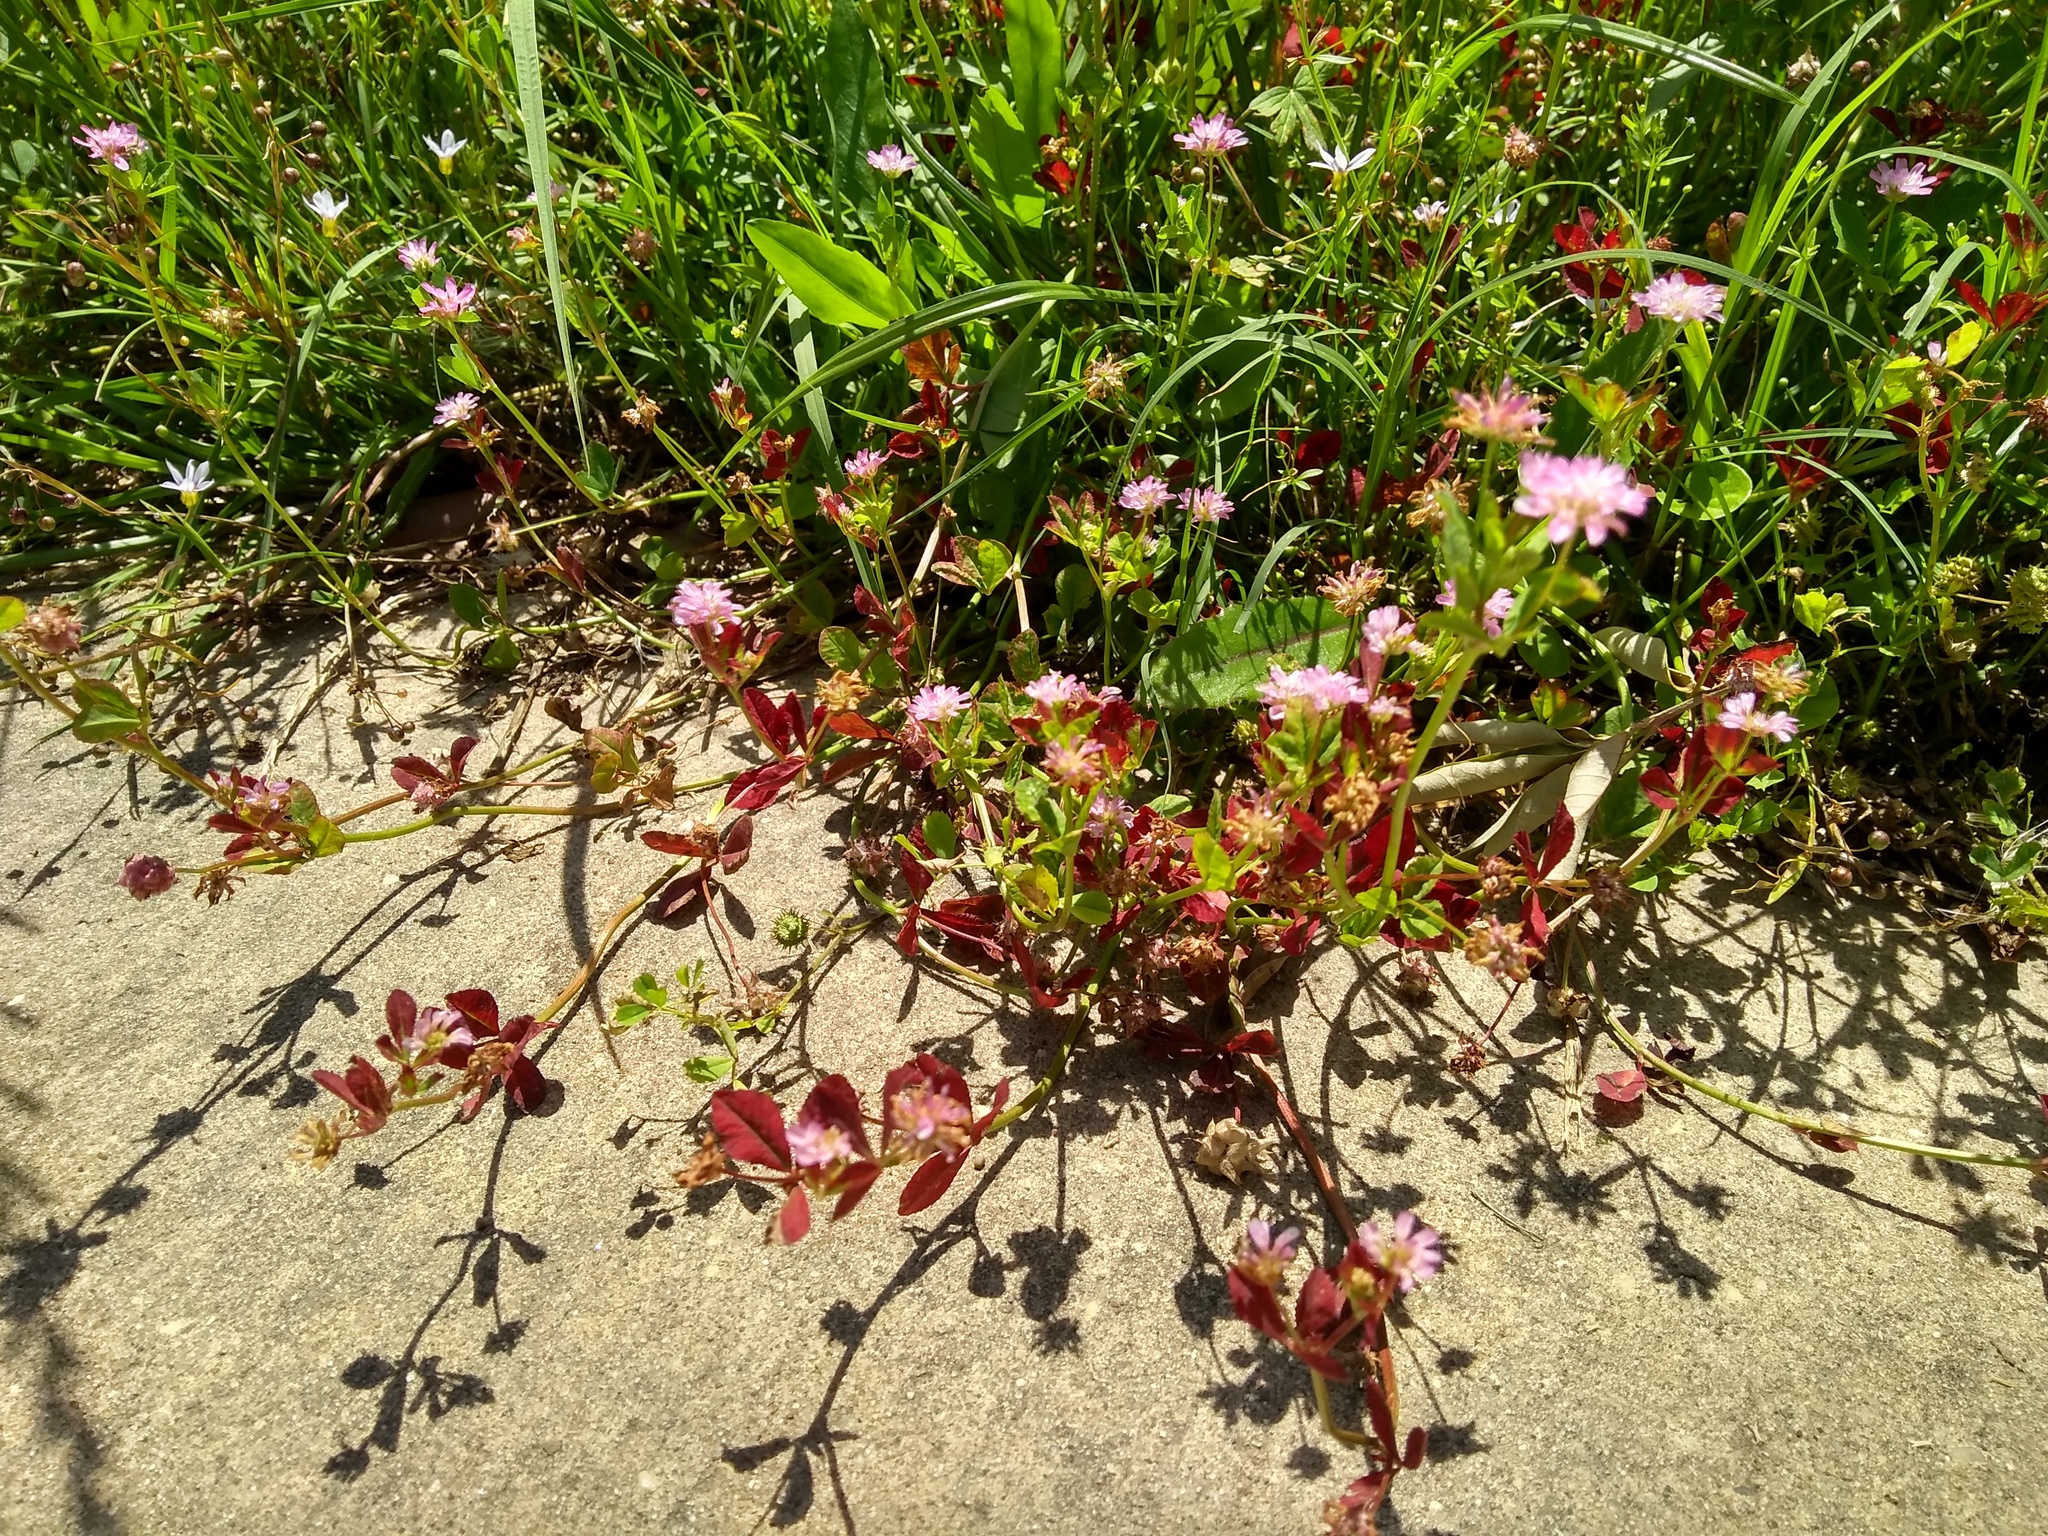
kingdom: Plantae
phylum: Tracheophyta
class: Magnoliopsida
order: Fabales
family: Fabaceae
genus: Trifolium
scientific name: Trifolium resupinatum
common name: Reversed clover
